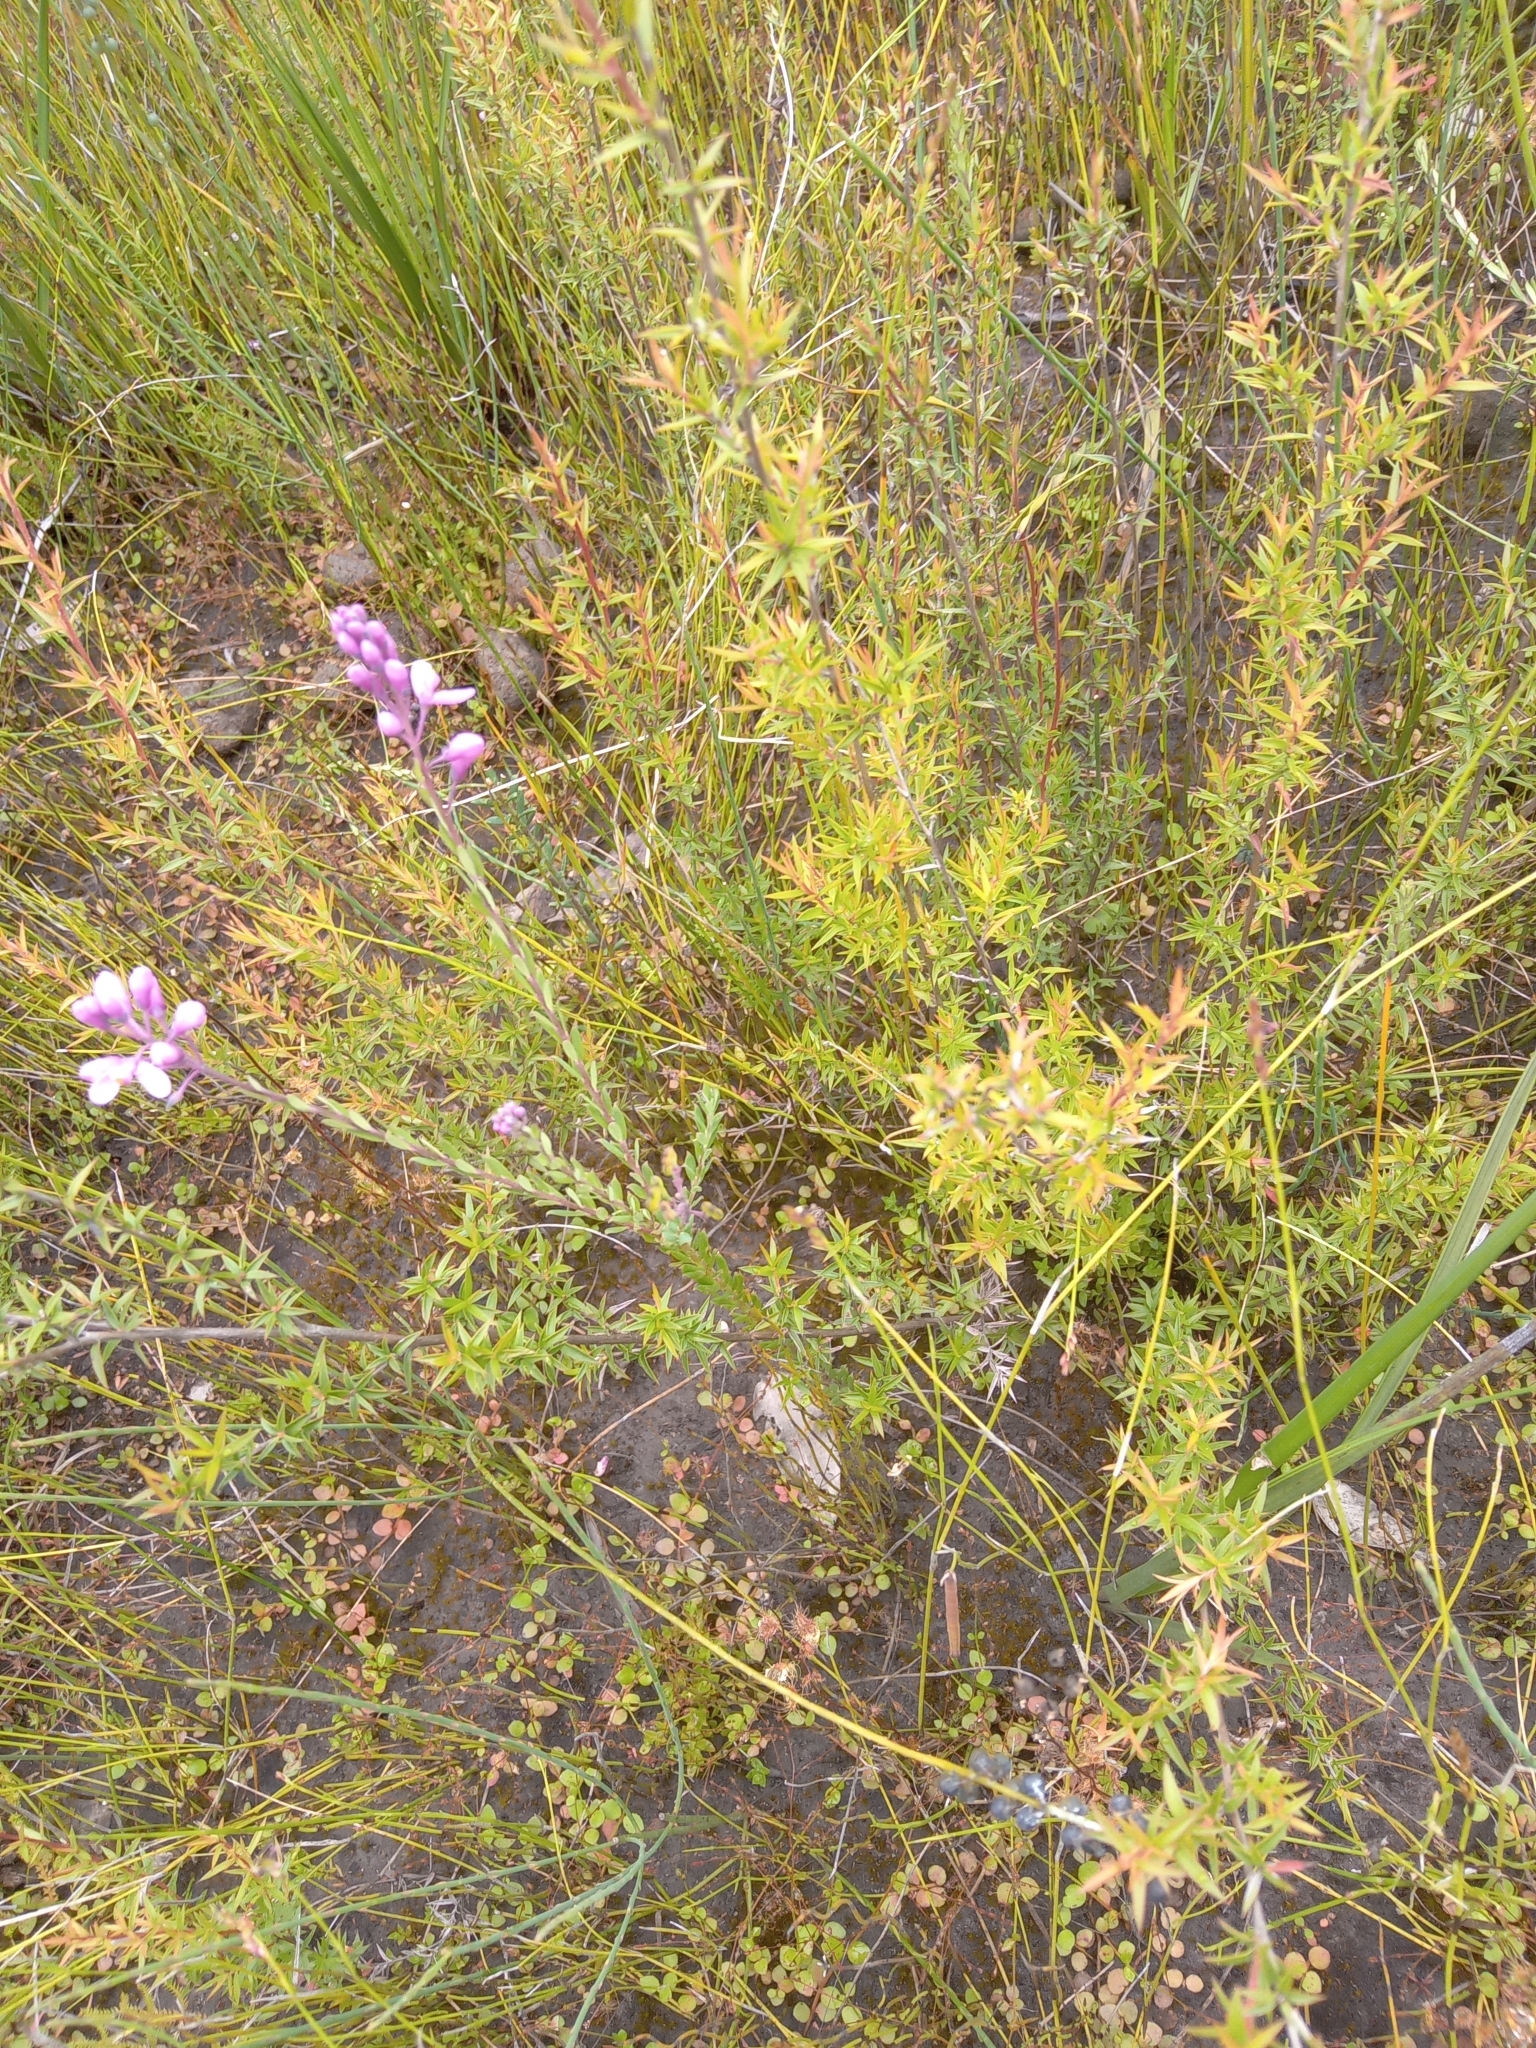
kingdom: Plantae
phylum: Tracheophyta
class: Magnoliopsida
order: Fabales
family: Polygalaceae
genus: Comesperma
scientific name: Comesperma ericinum
